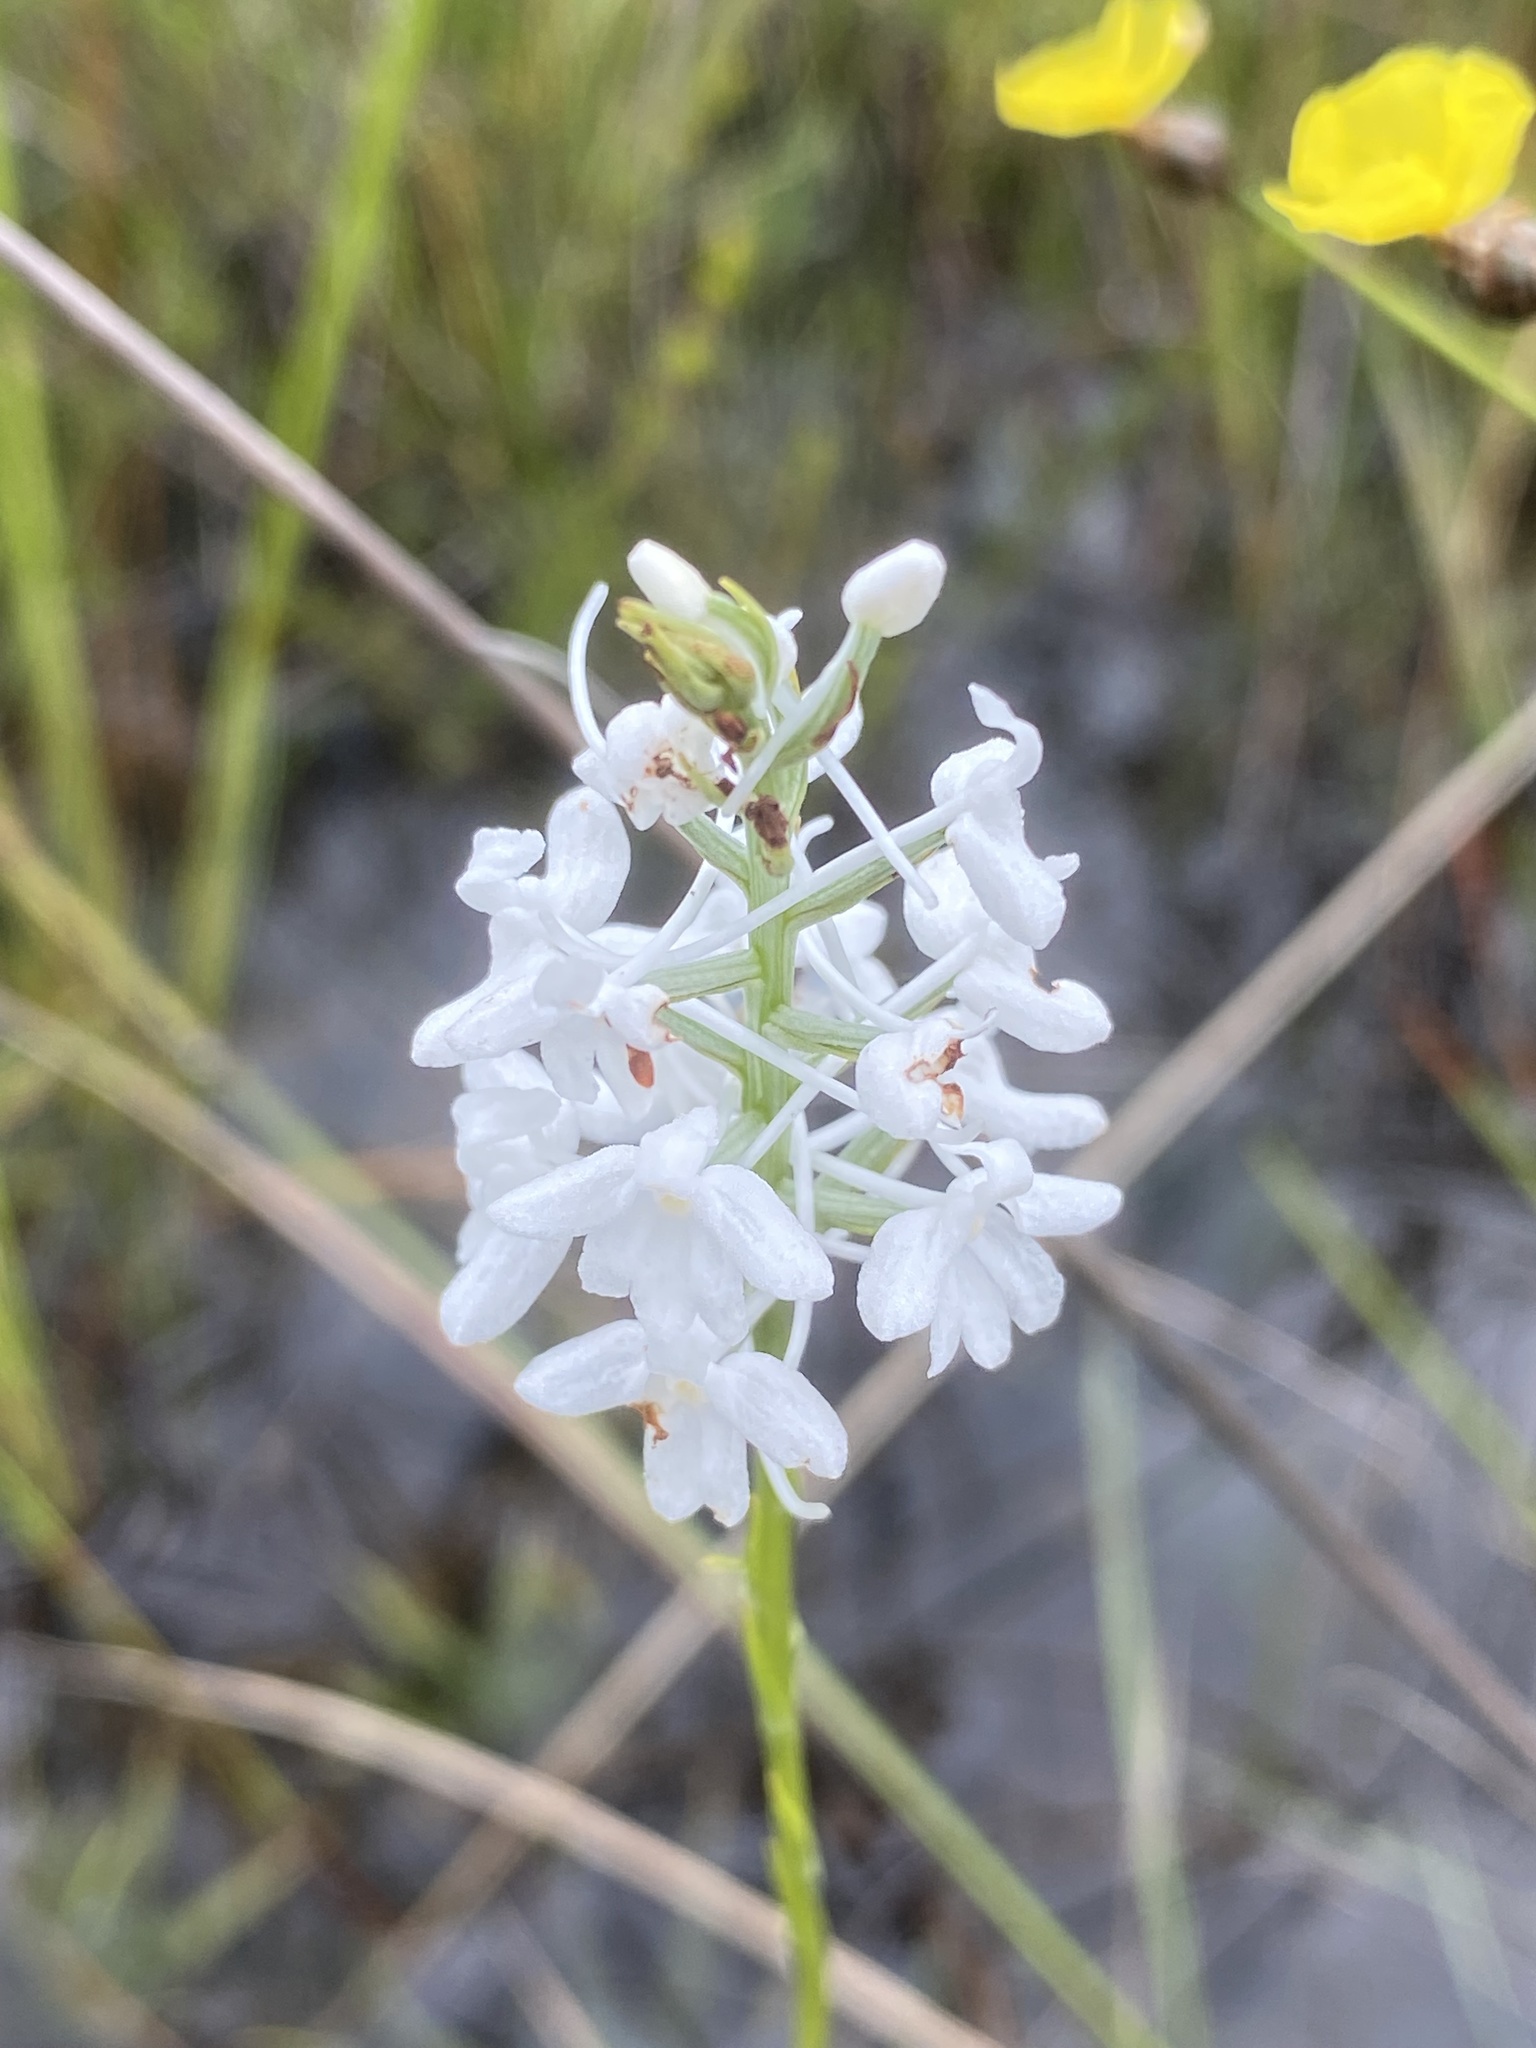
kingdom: Plantae
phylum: Tracheophyta
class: Liliopsida
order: Asparagales
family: Orchidaceae
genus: Platanthera
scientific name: Platanthera nivea
